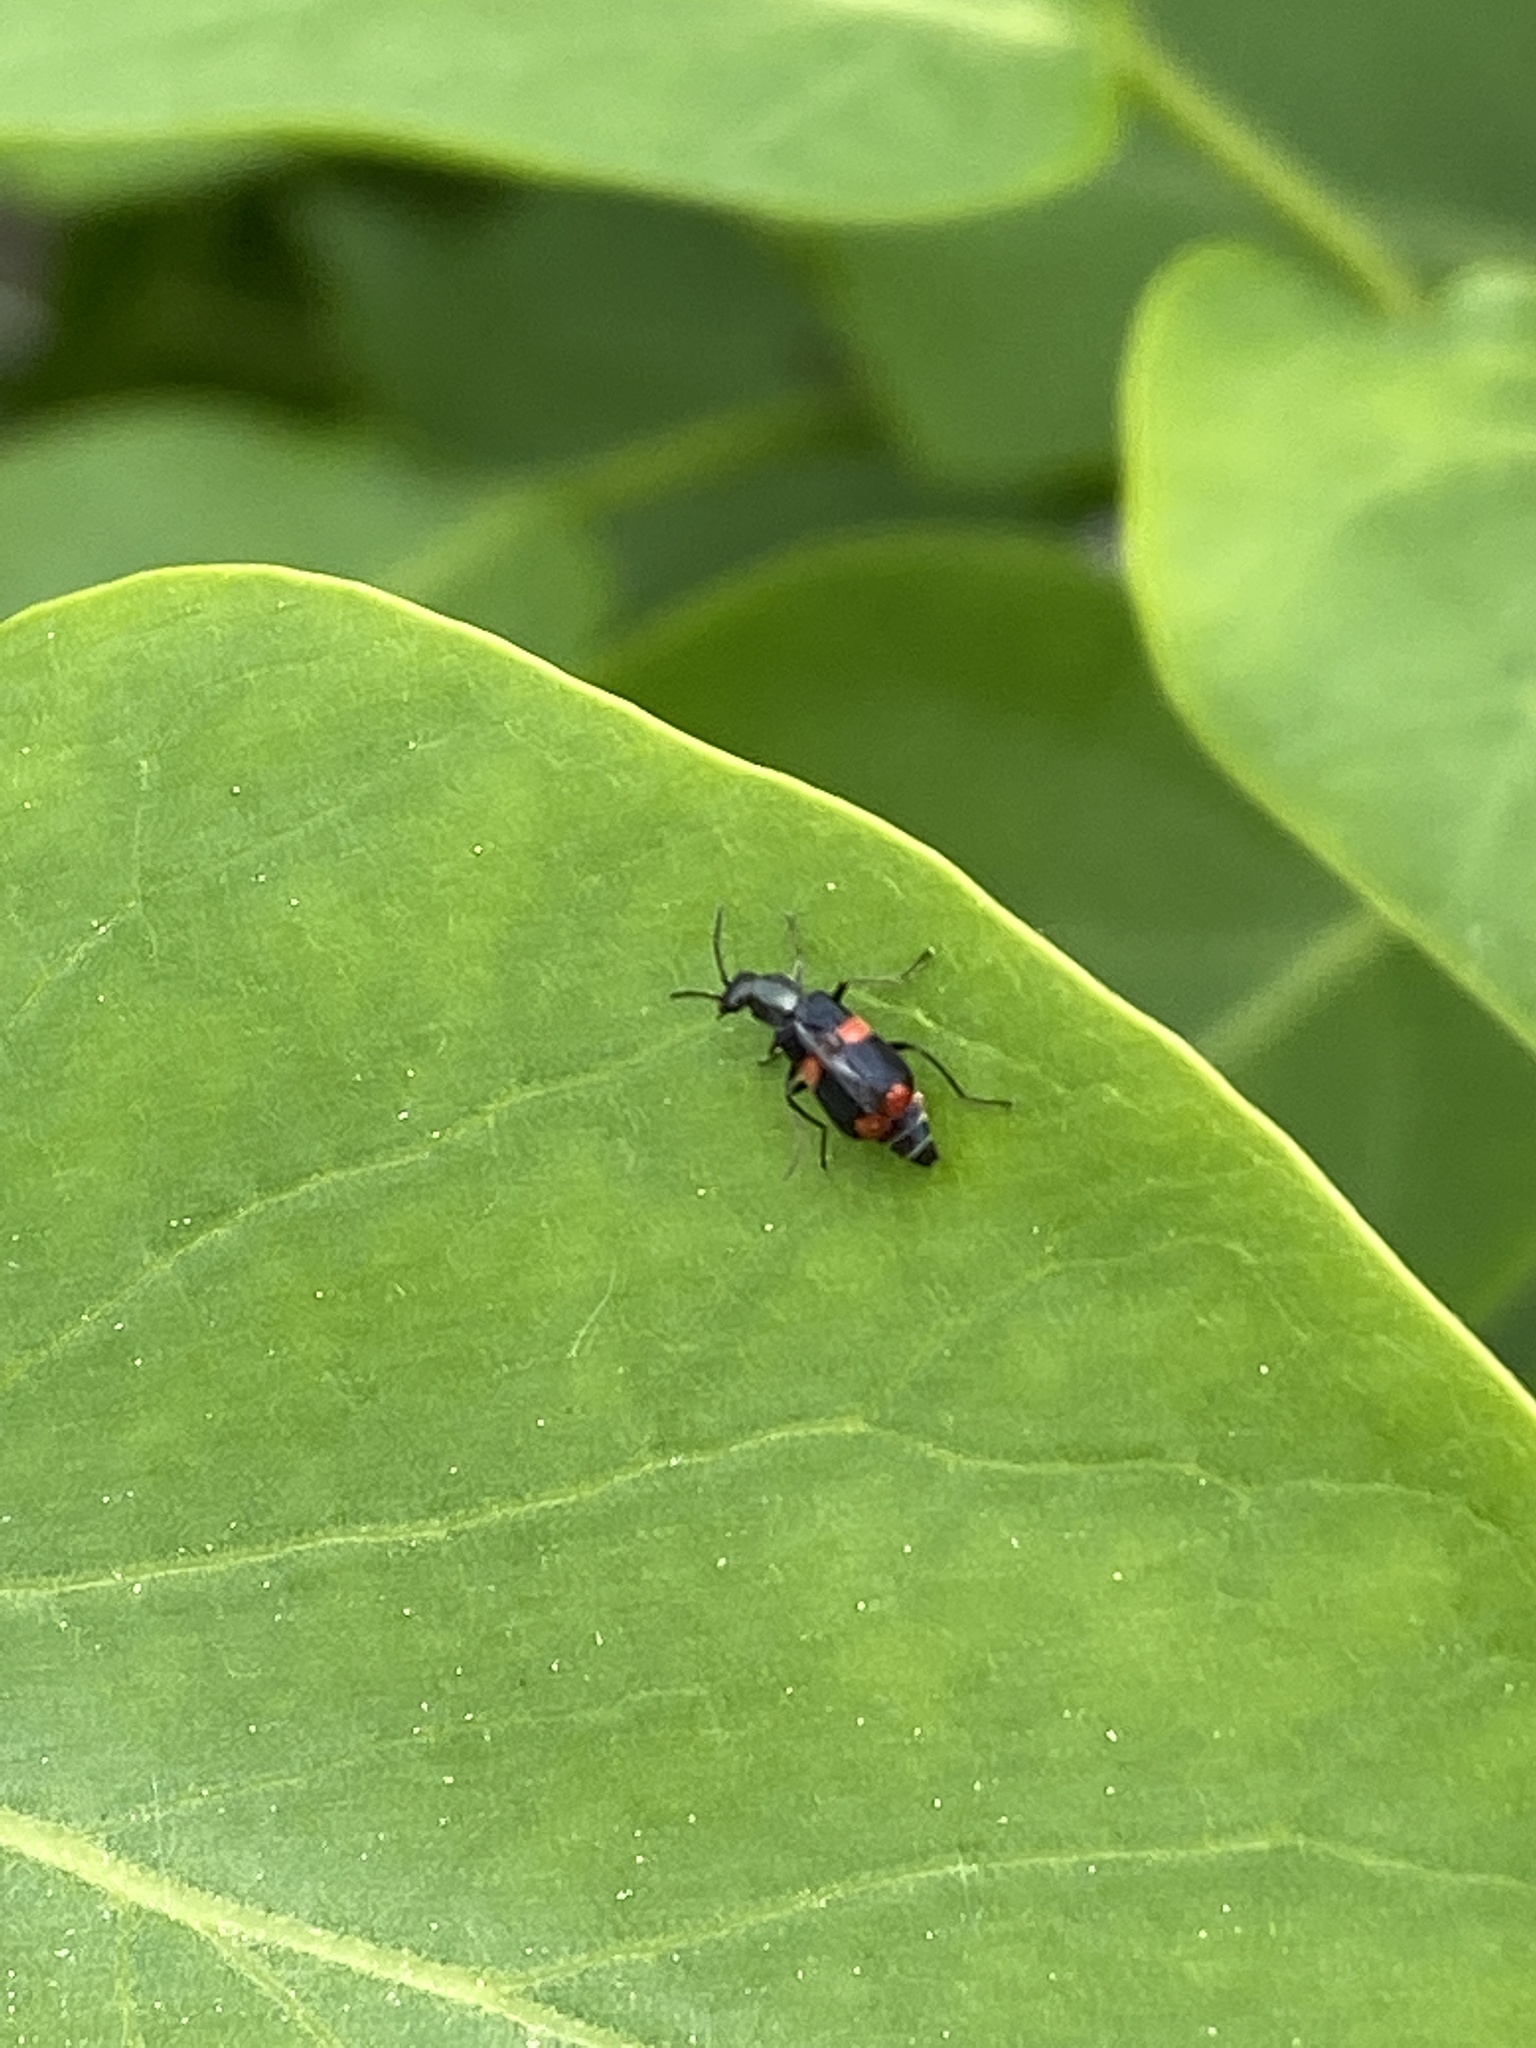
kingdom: Animalia
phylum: Arthropoda
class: Insecta
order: Coleoptera
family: Melyridae
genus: Anthocomus
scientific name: Anthocomus fasciatus
